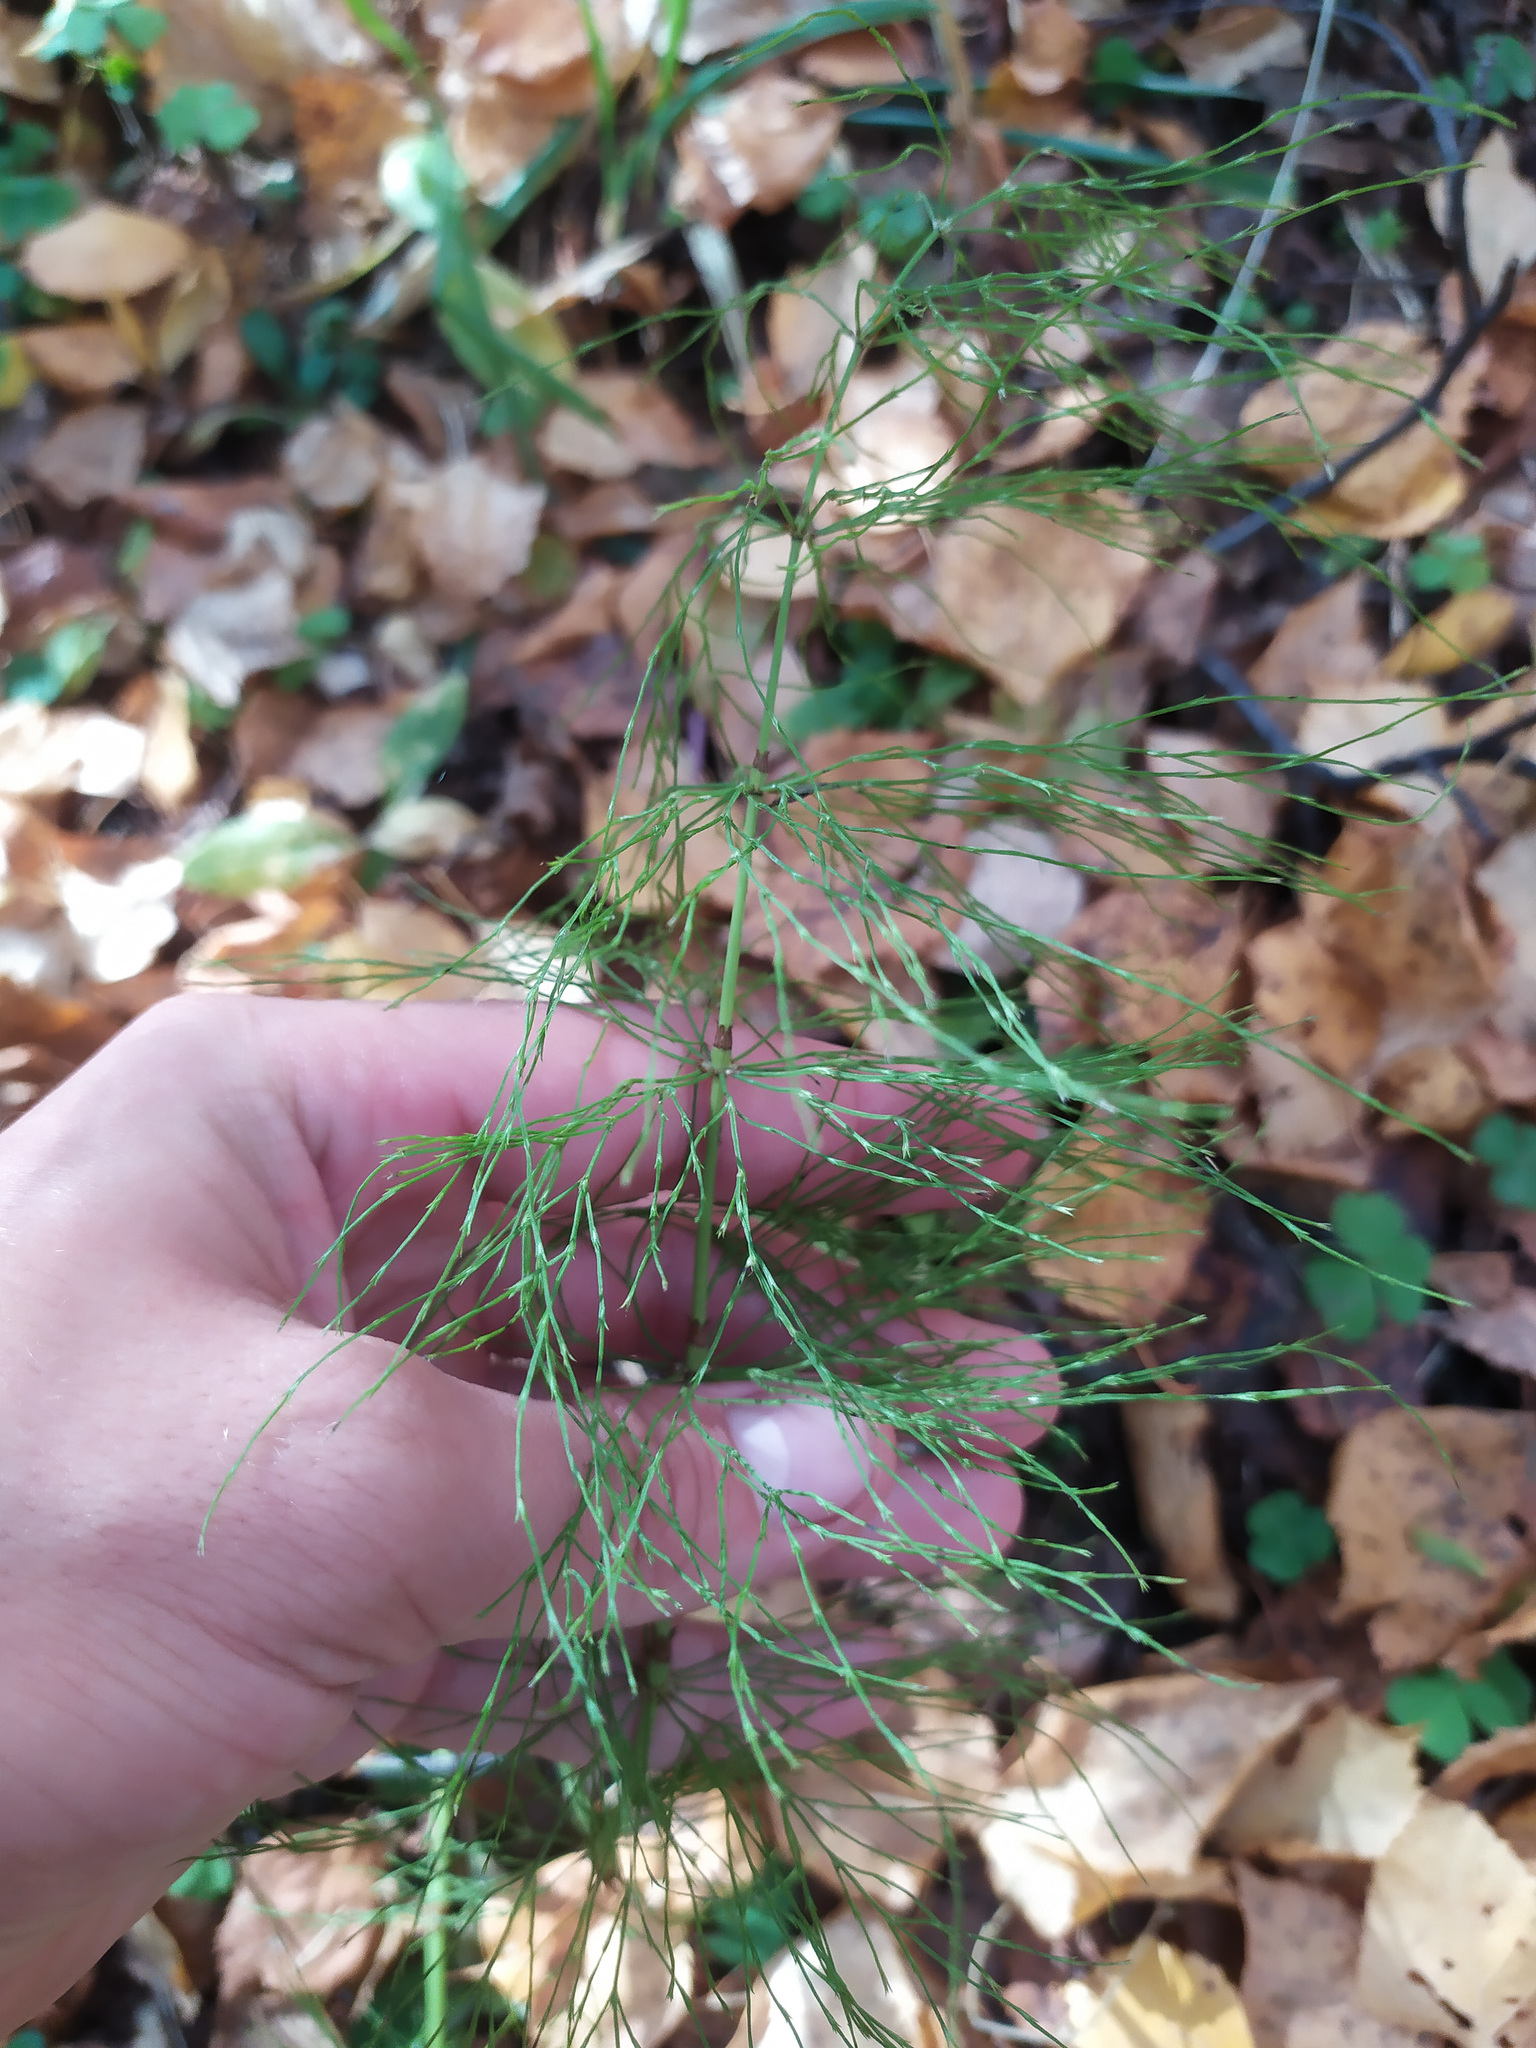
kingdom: Plantae
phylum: Tracheophyta
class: Polypodiopsida
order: Equisetales
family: Equisetaceae
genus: Equisetum
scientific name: Equisetum sylvaticum
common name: Wood horsetail
